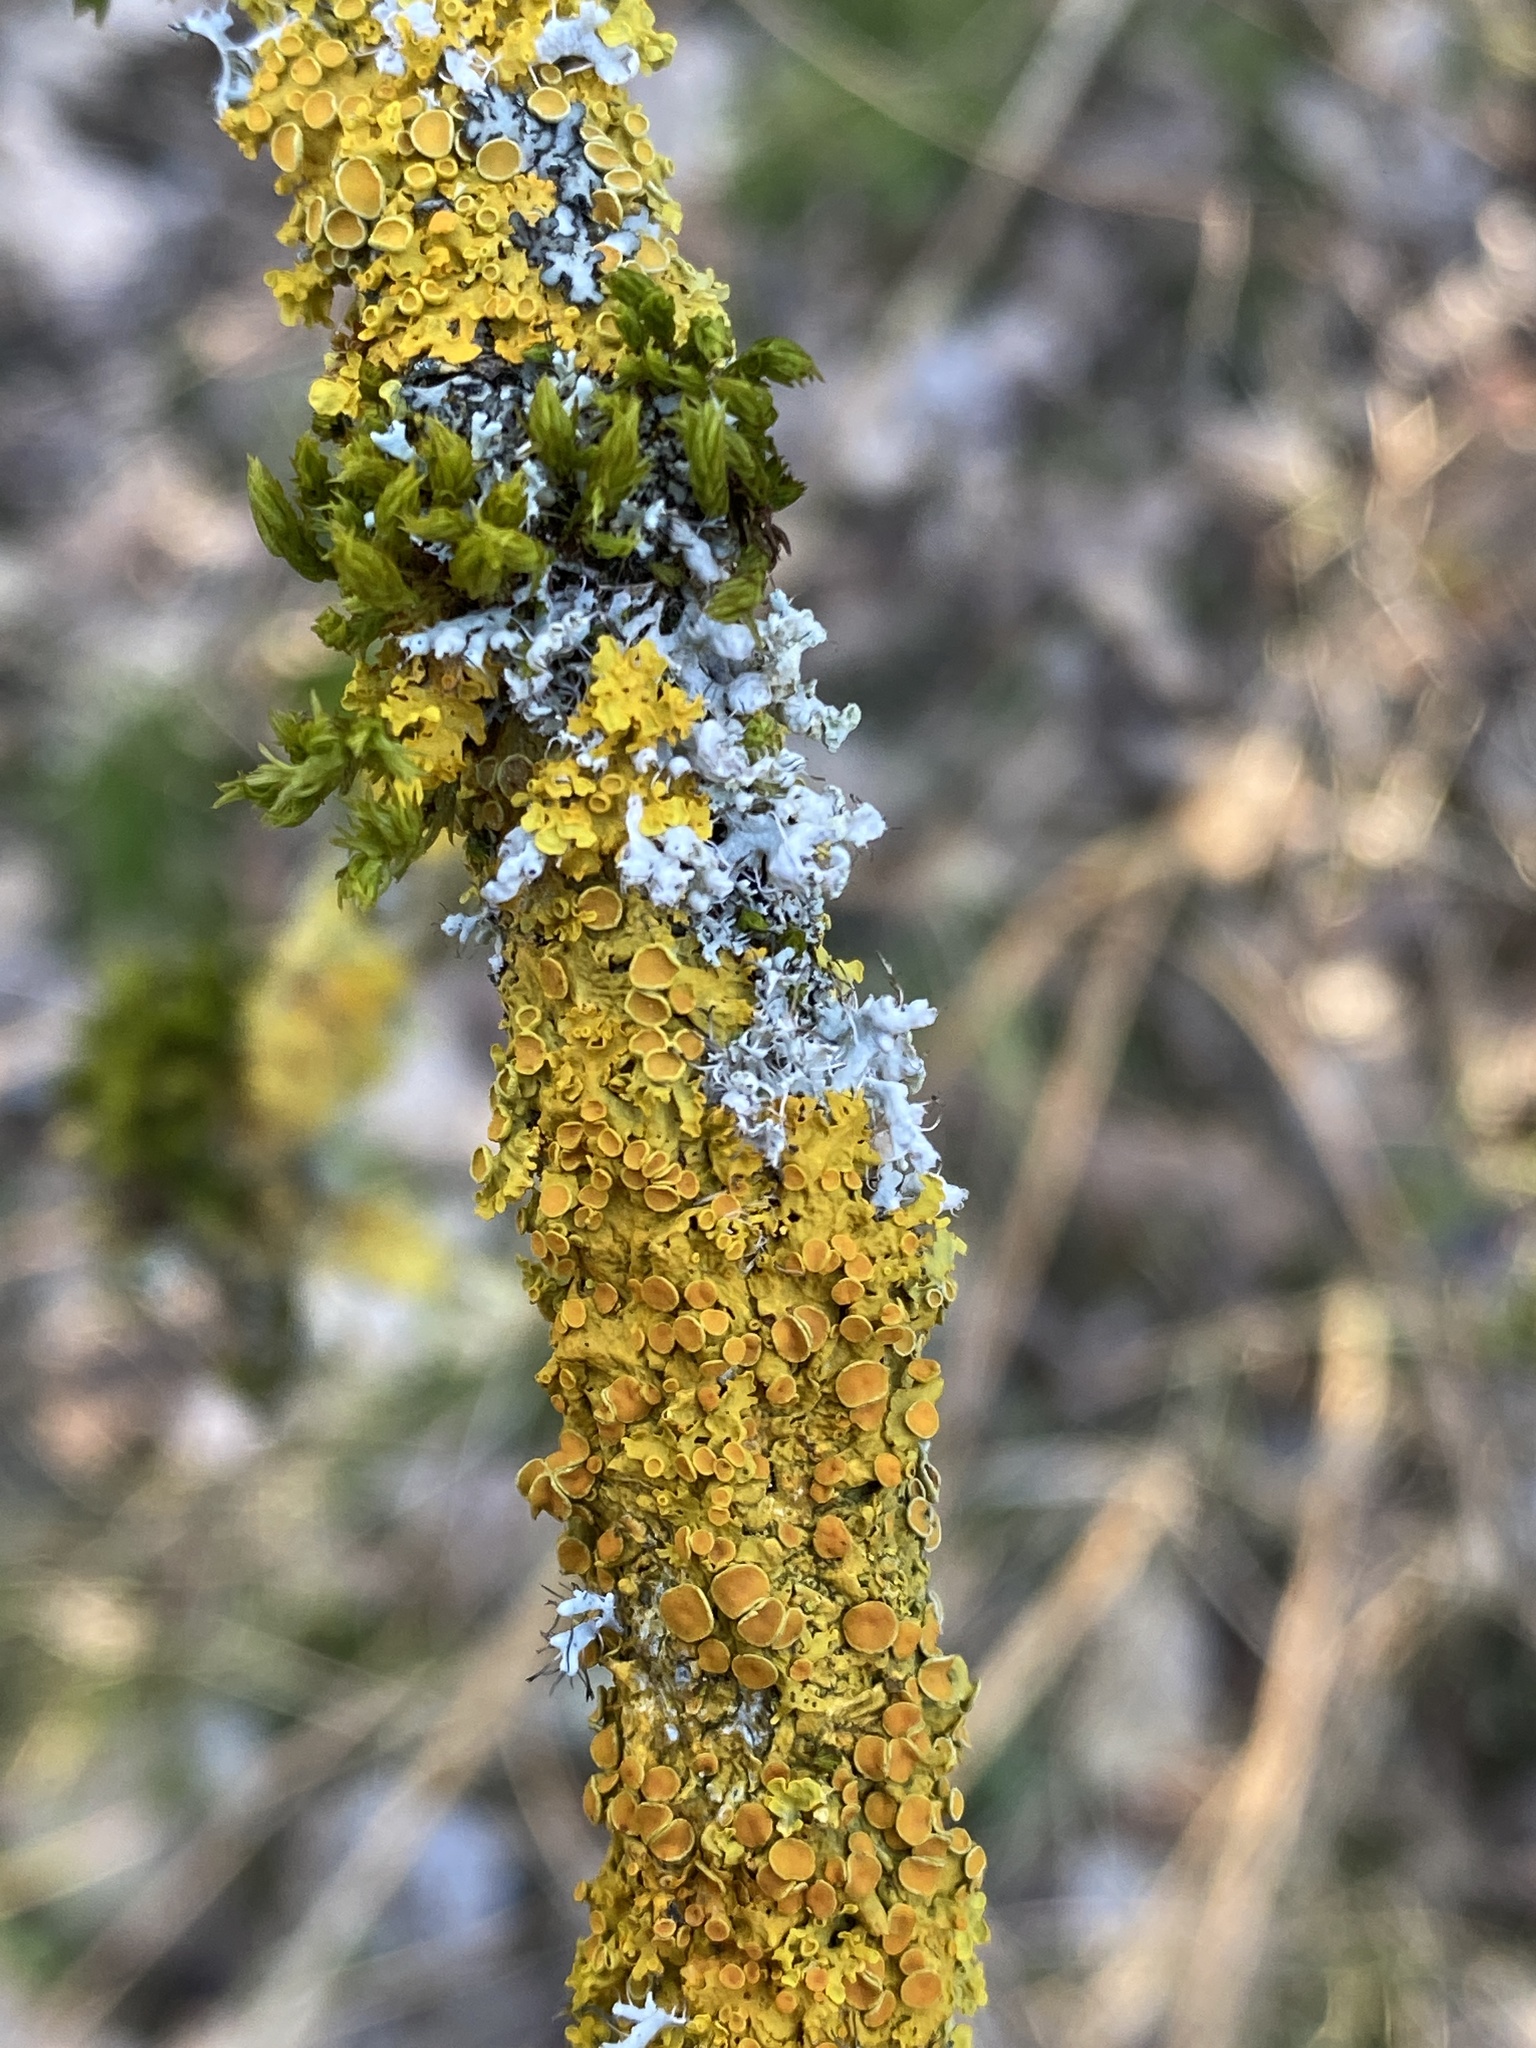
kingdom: Fungi
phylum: Ascomycota
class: Lecanoromycetes
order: Teloschistales
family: Teloschistaceae
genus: Xanthoria
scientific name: Xanthoria parietina
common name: Common orange lichen
